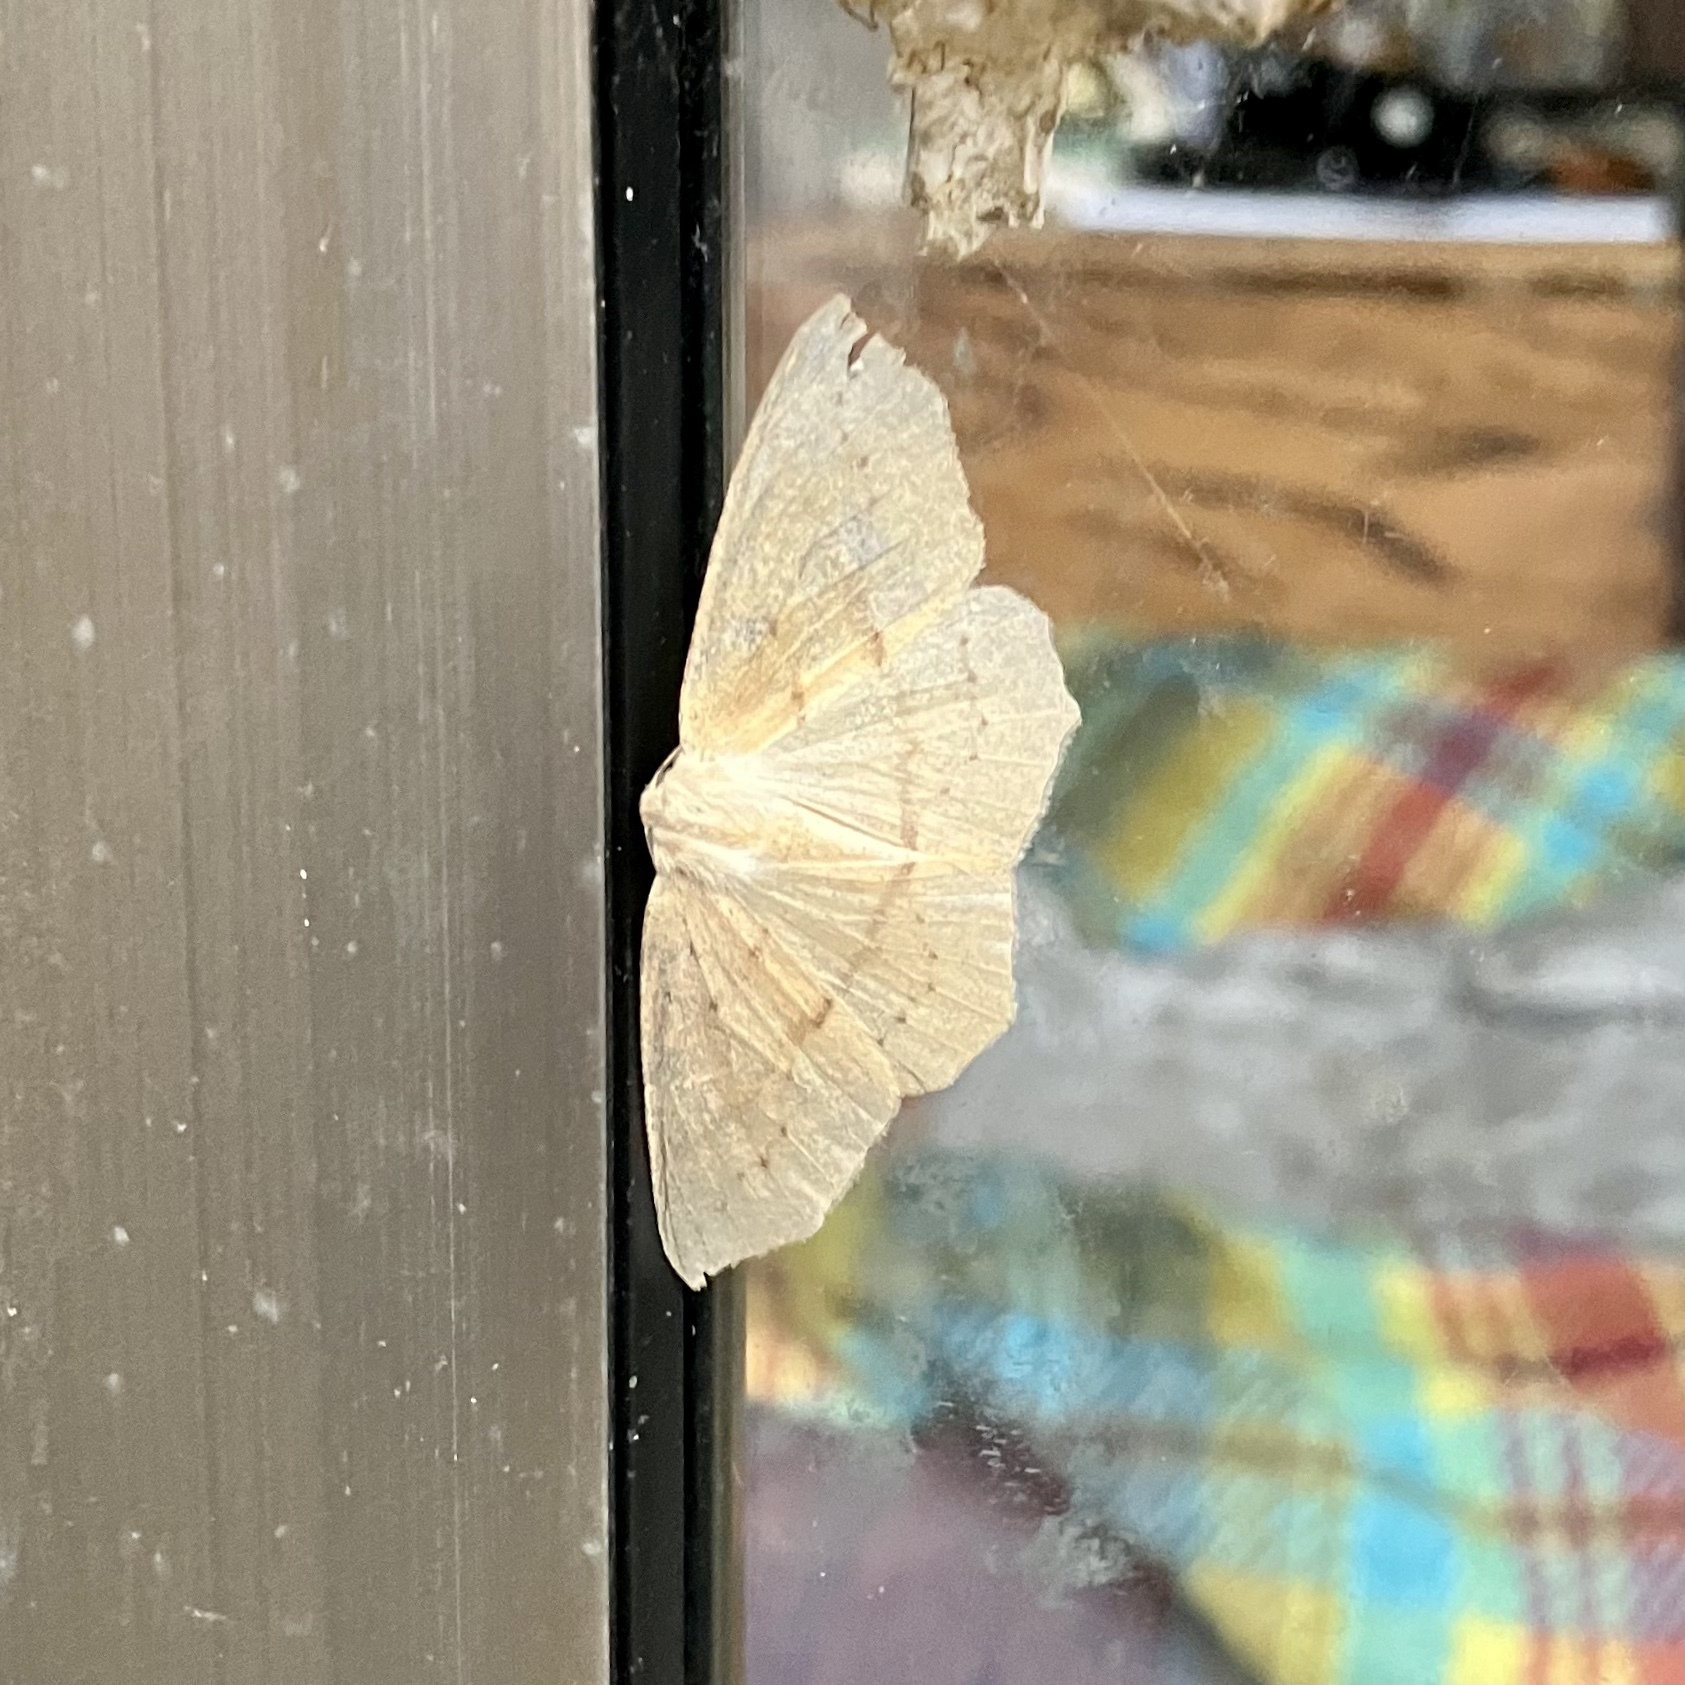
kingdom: Animalia
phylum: Arthropoda
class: Insecta
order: Lepidoptera
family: Geometridae
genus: Sabulodes
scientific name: Sabulodes aegrotata
